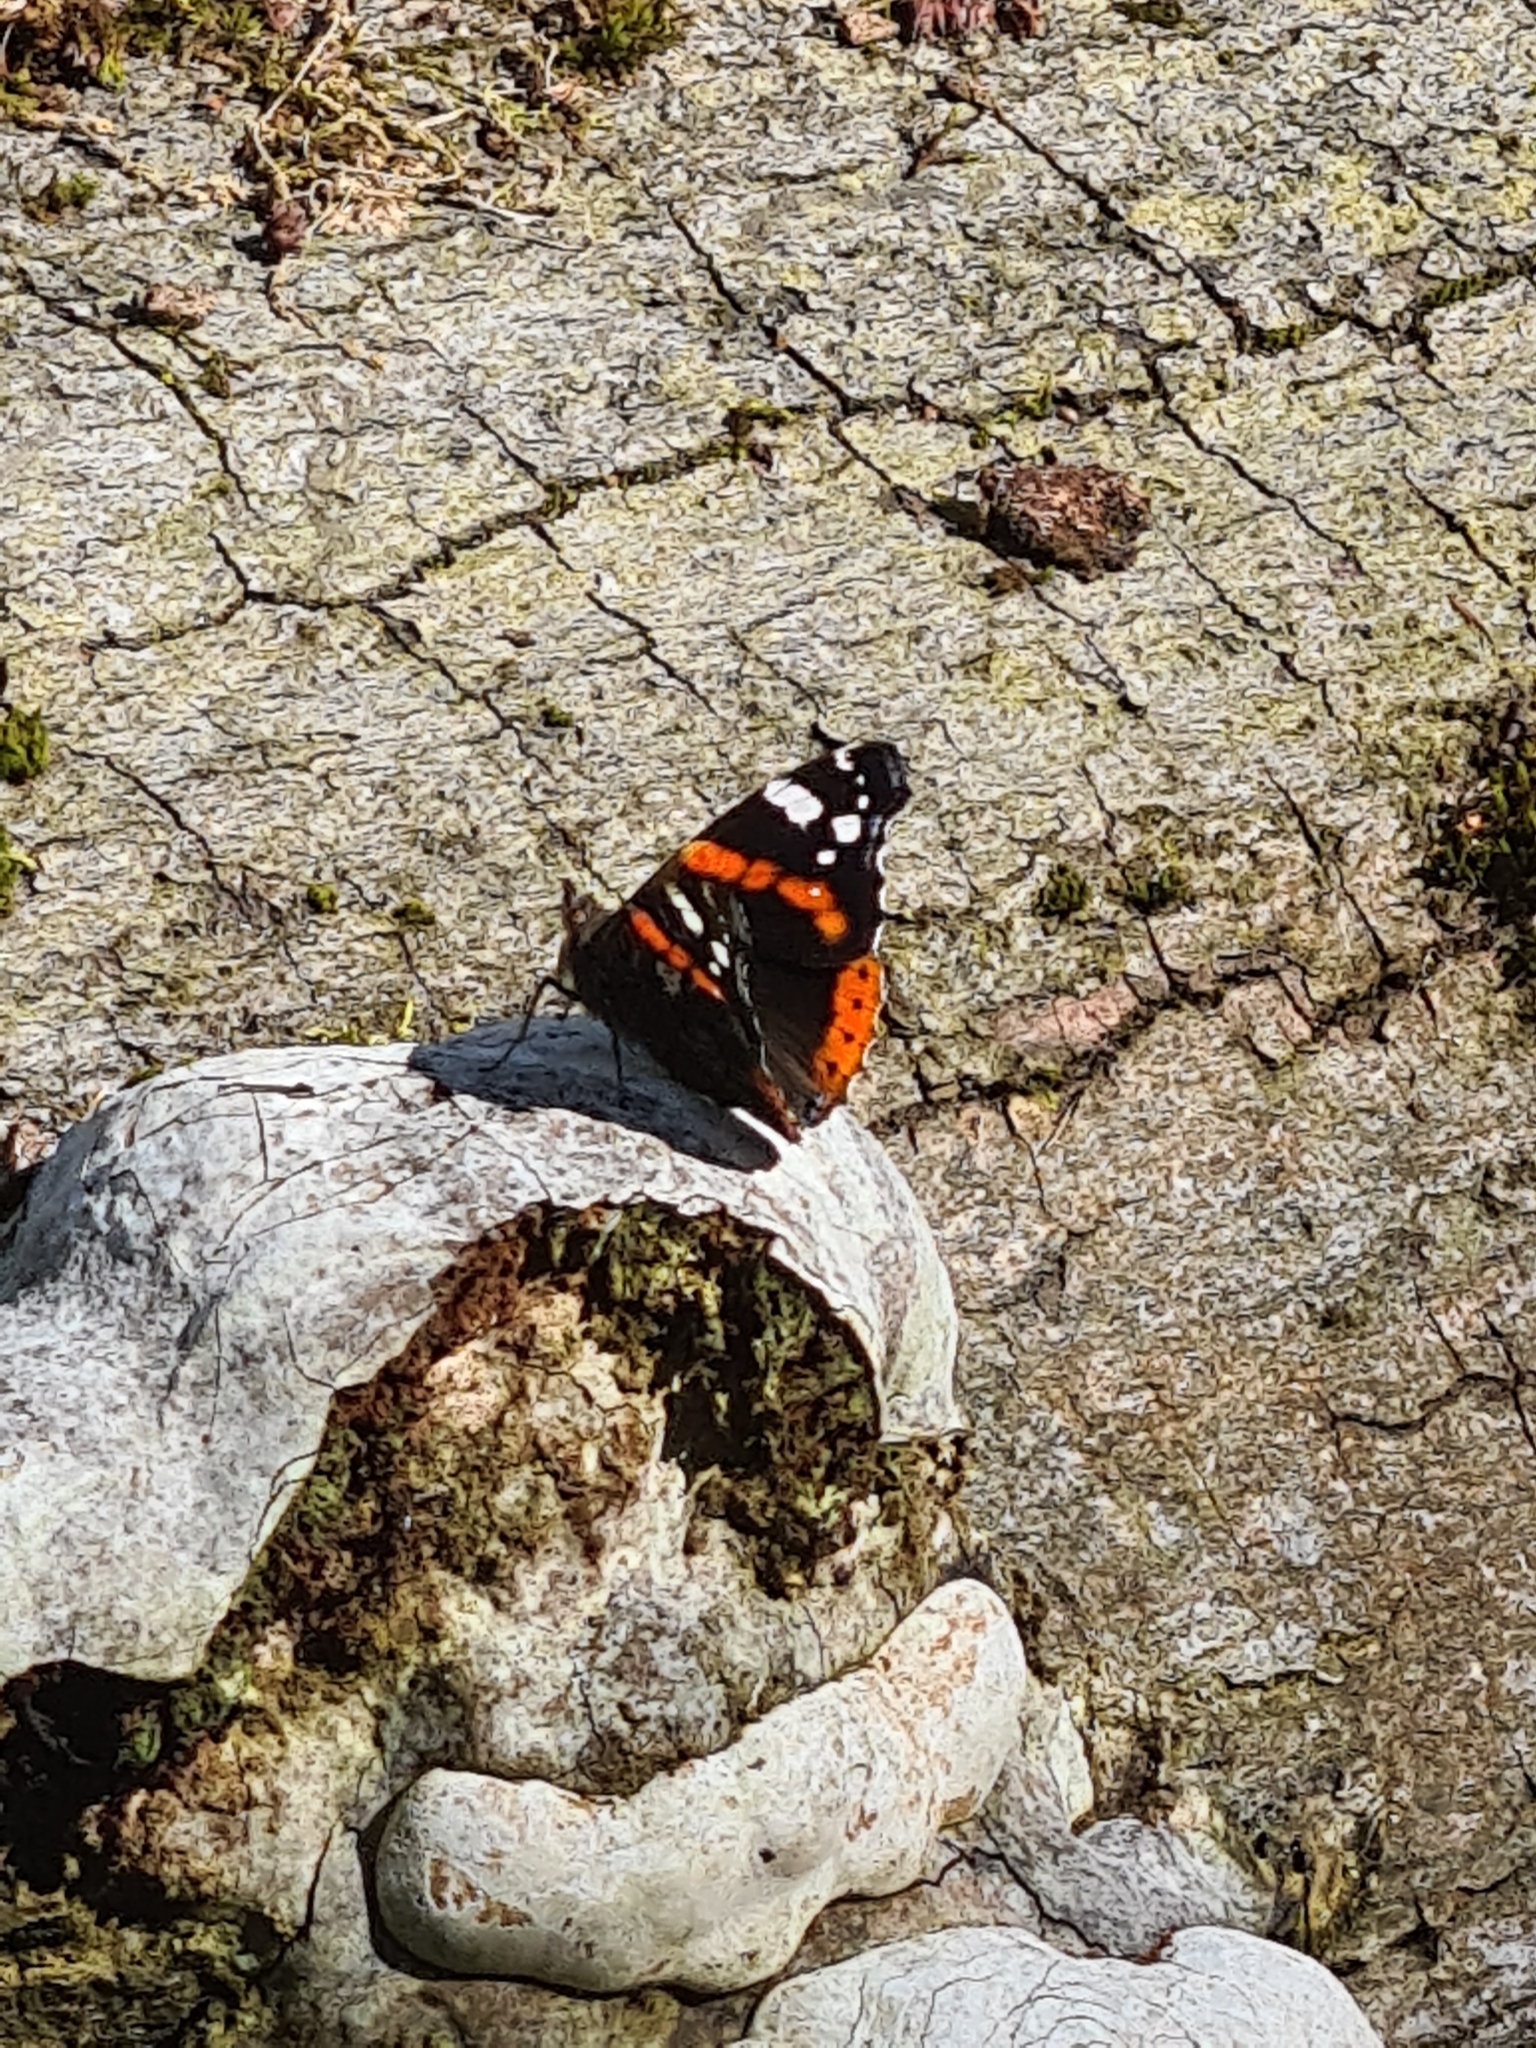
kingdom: Animalia
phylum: Arthropoda
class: Insecta
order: Lepidoptera
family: Nymphalidae
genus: Vanessa
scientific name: Vanessa atalanta
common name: Red admiral
